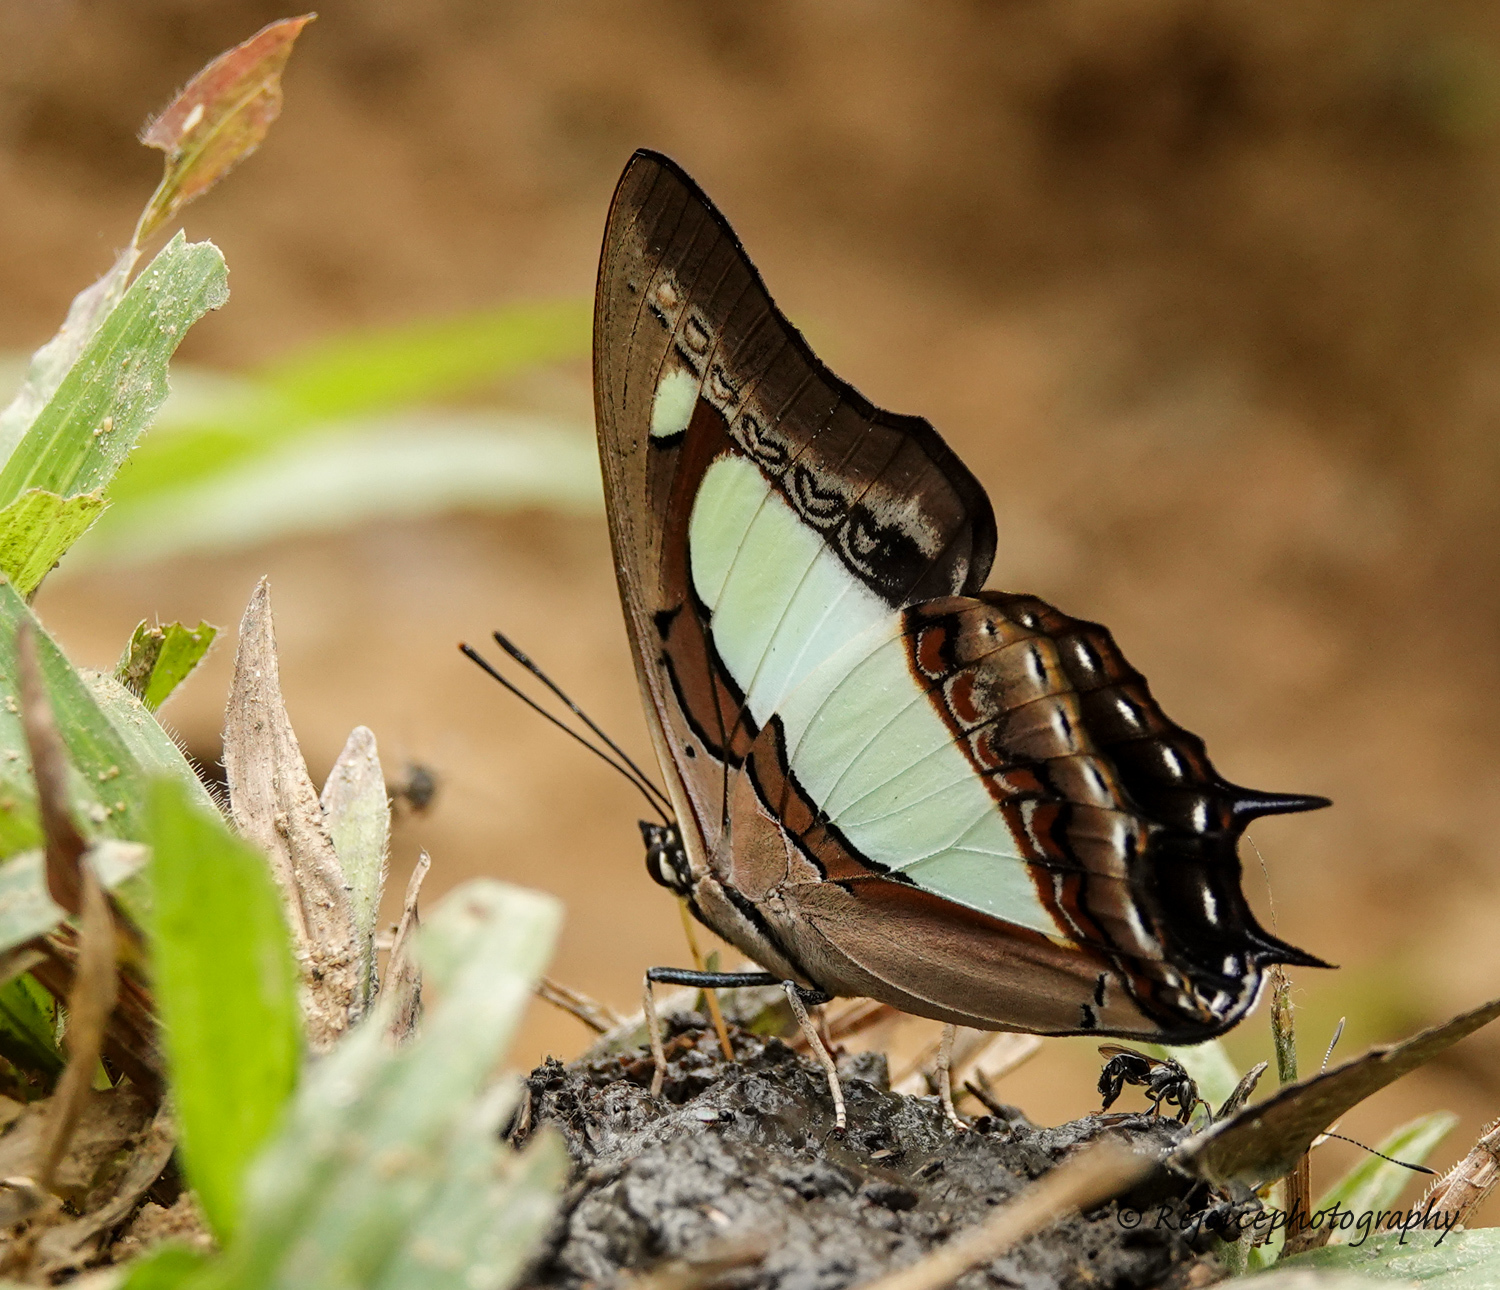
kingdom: Animalia
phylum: Arthropoda
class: Insecta
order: Lepidoptera
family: Nymphalidae
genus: Polyura
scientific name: Polyura athamas
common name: Common nawab
